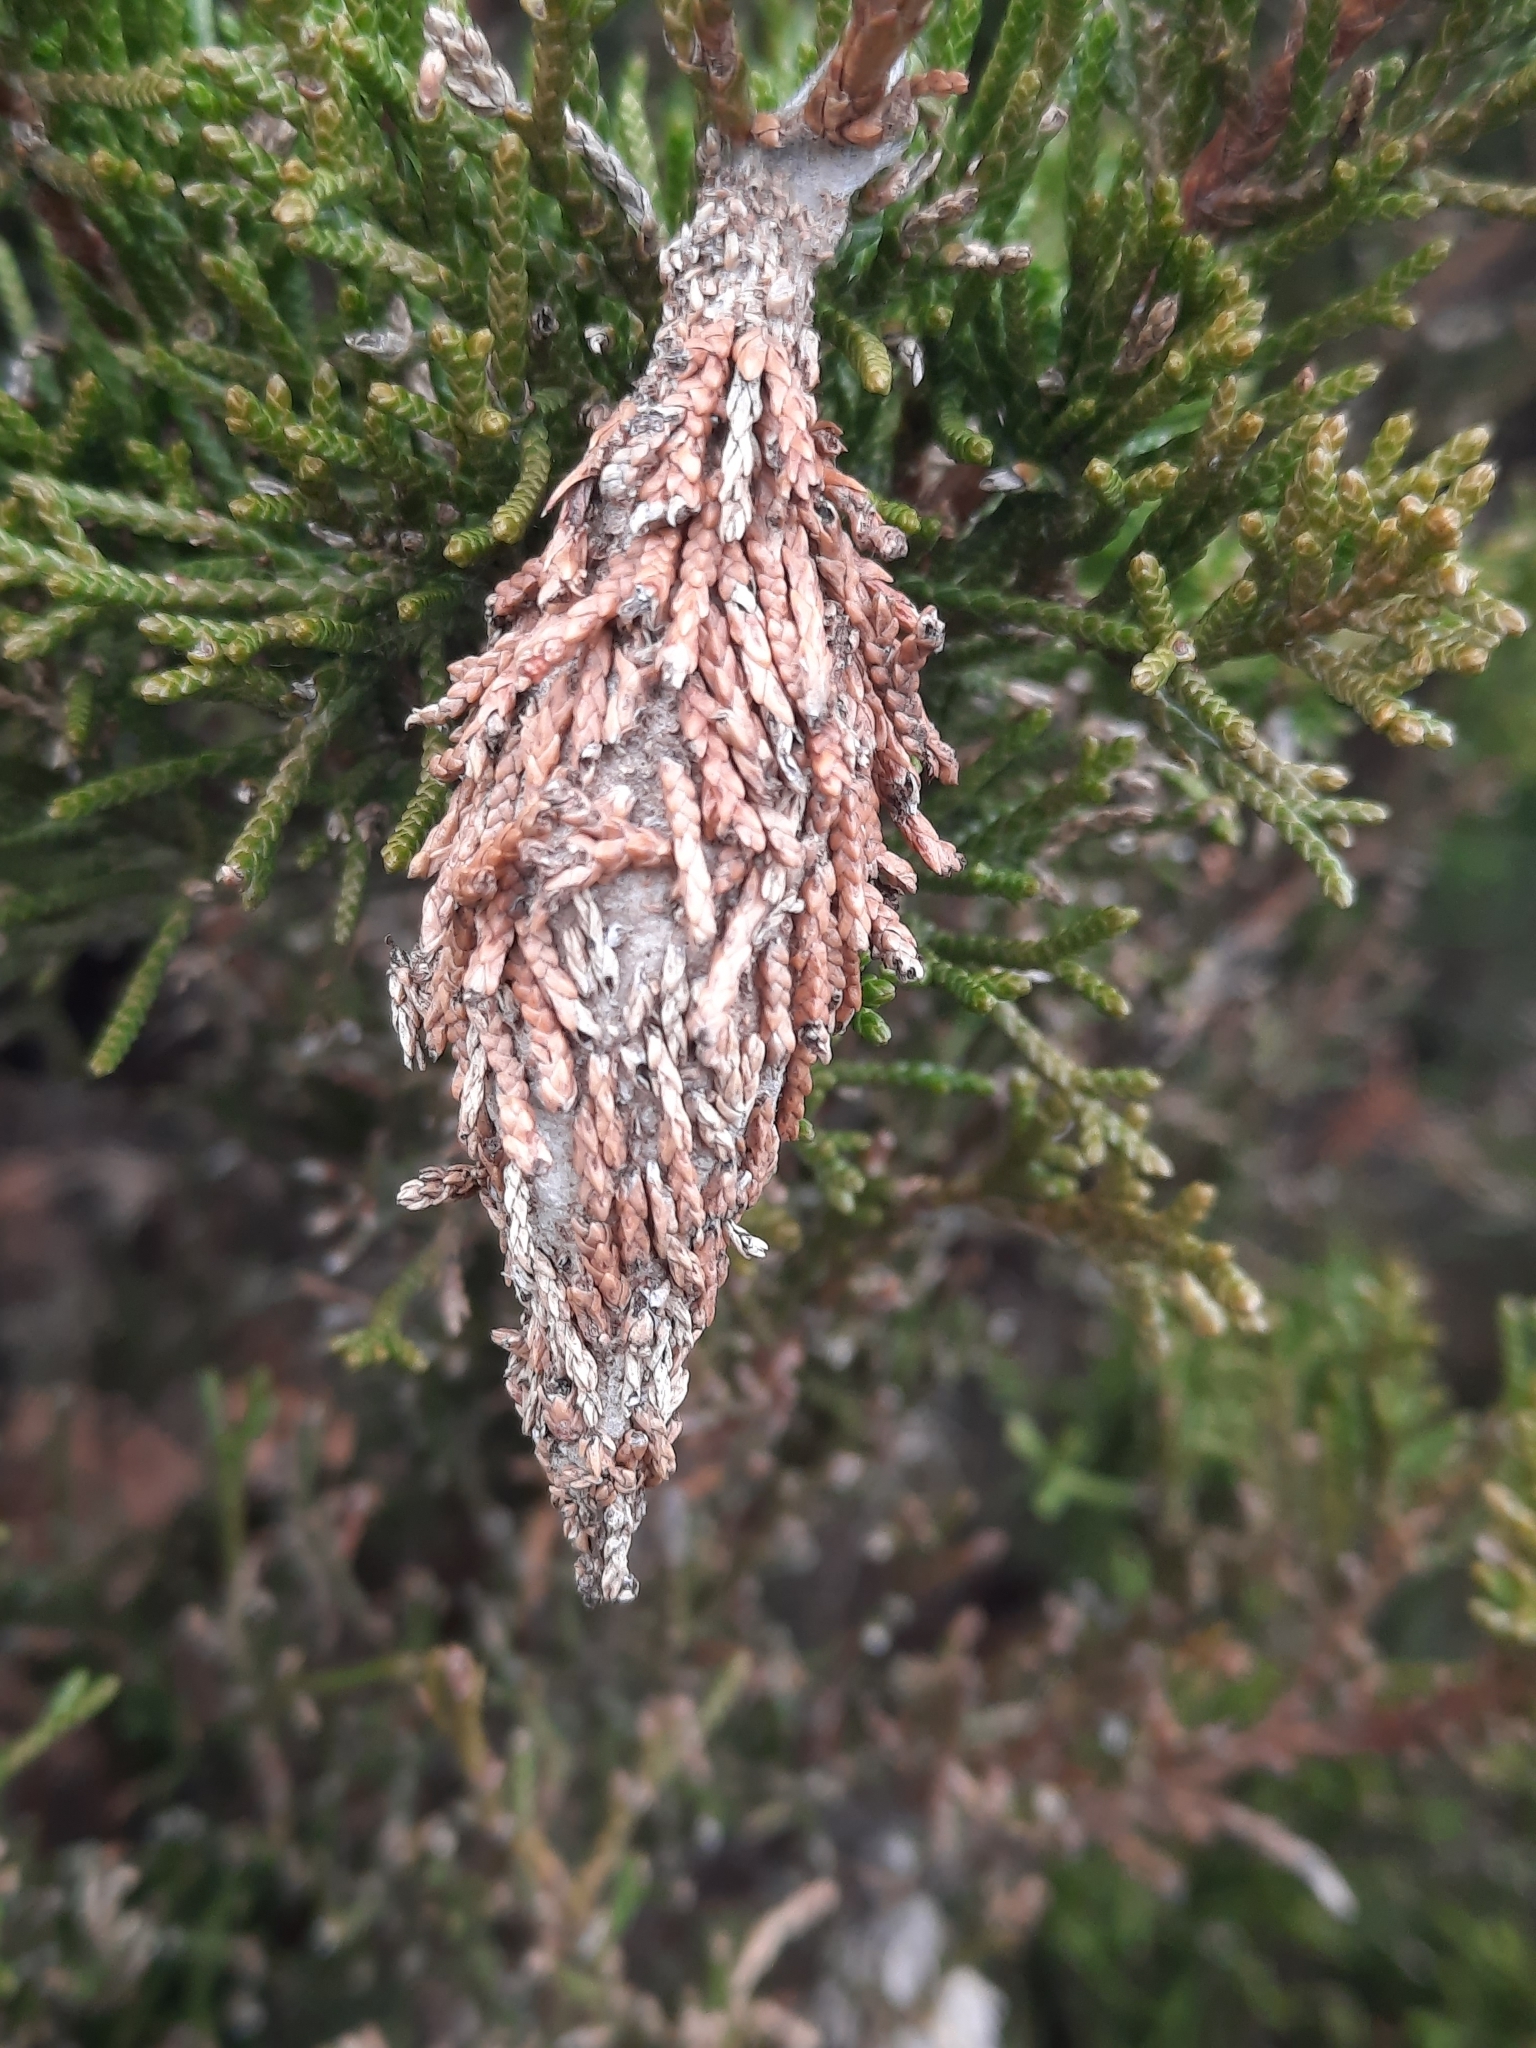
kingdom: Animalia
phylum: Arthropoda
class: Insecta
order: Lepidoptera
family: Psychidae
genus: Thyridopteryx
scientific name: Thyridopteryx ephemeraeformis
